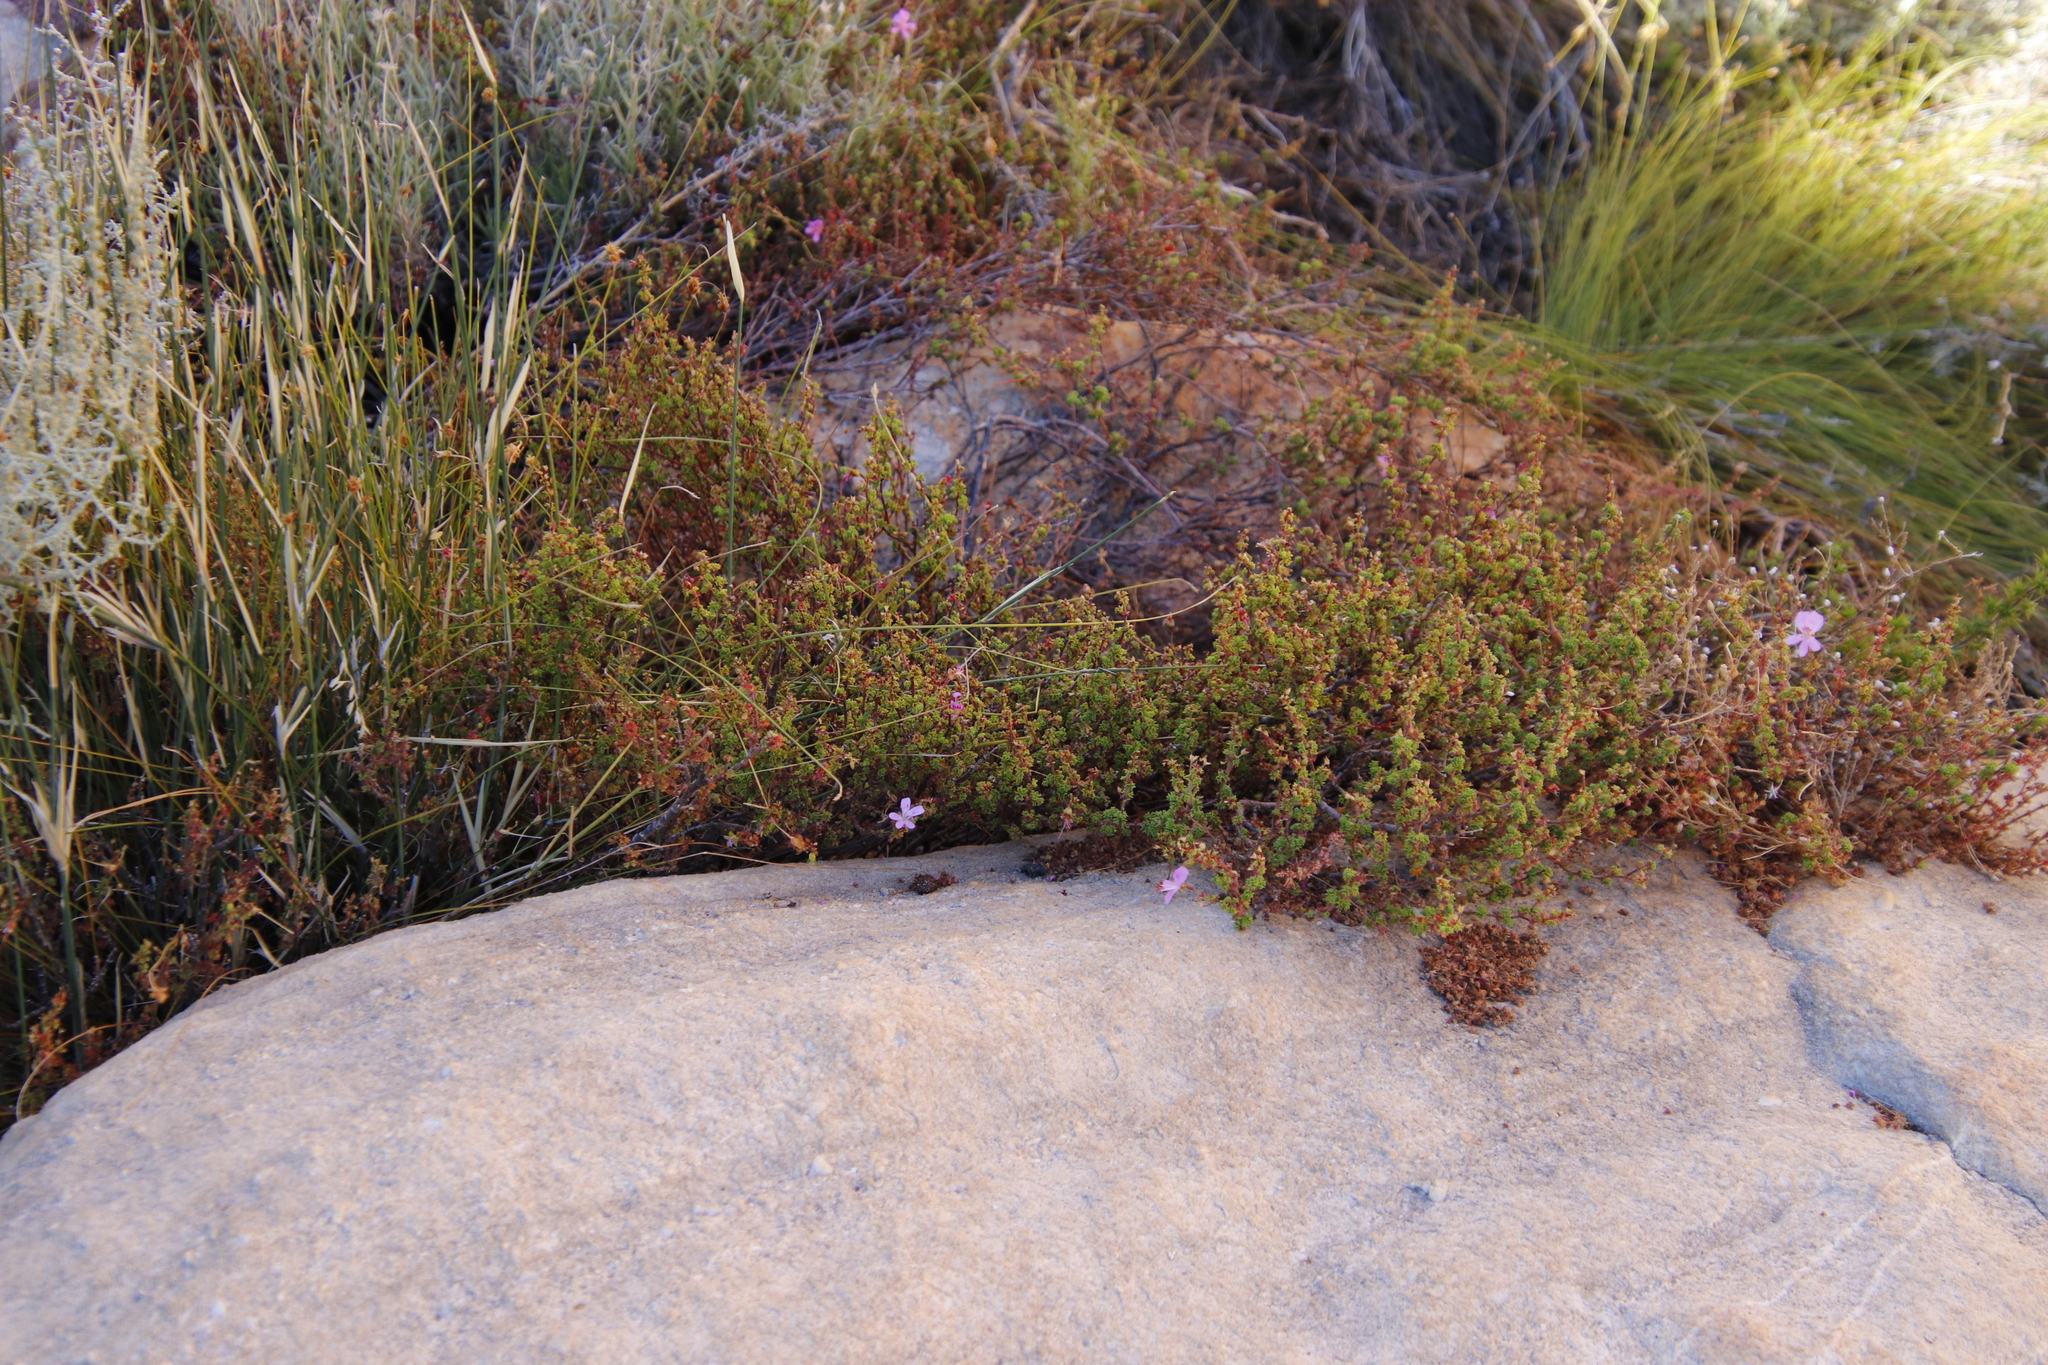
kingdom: Plantae
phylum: Tracheophyta
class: Magnoliopsida
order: Geraniales
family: Geraniaceae
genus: Pelargonium
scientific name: Pelargonium englerianum
